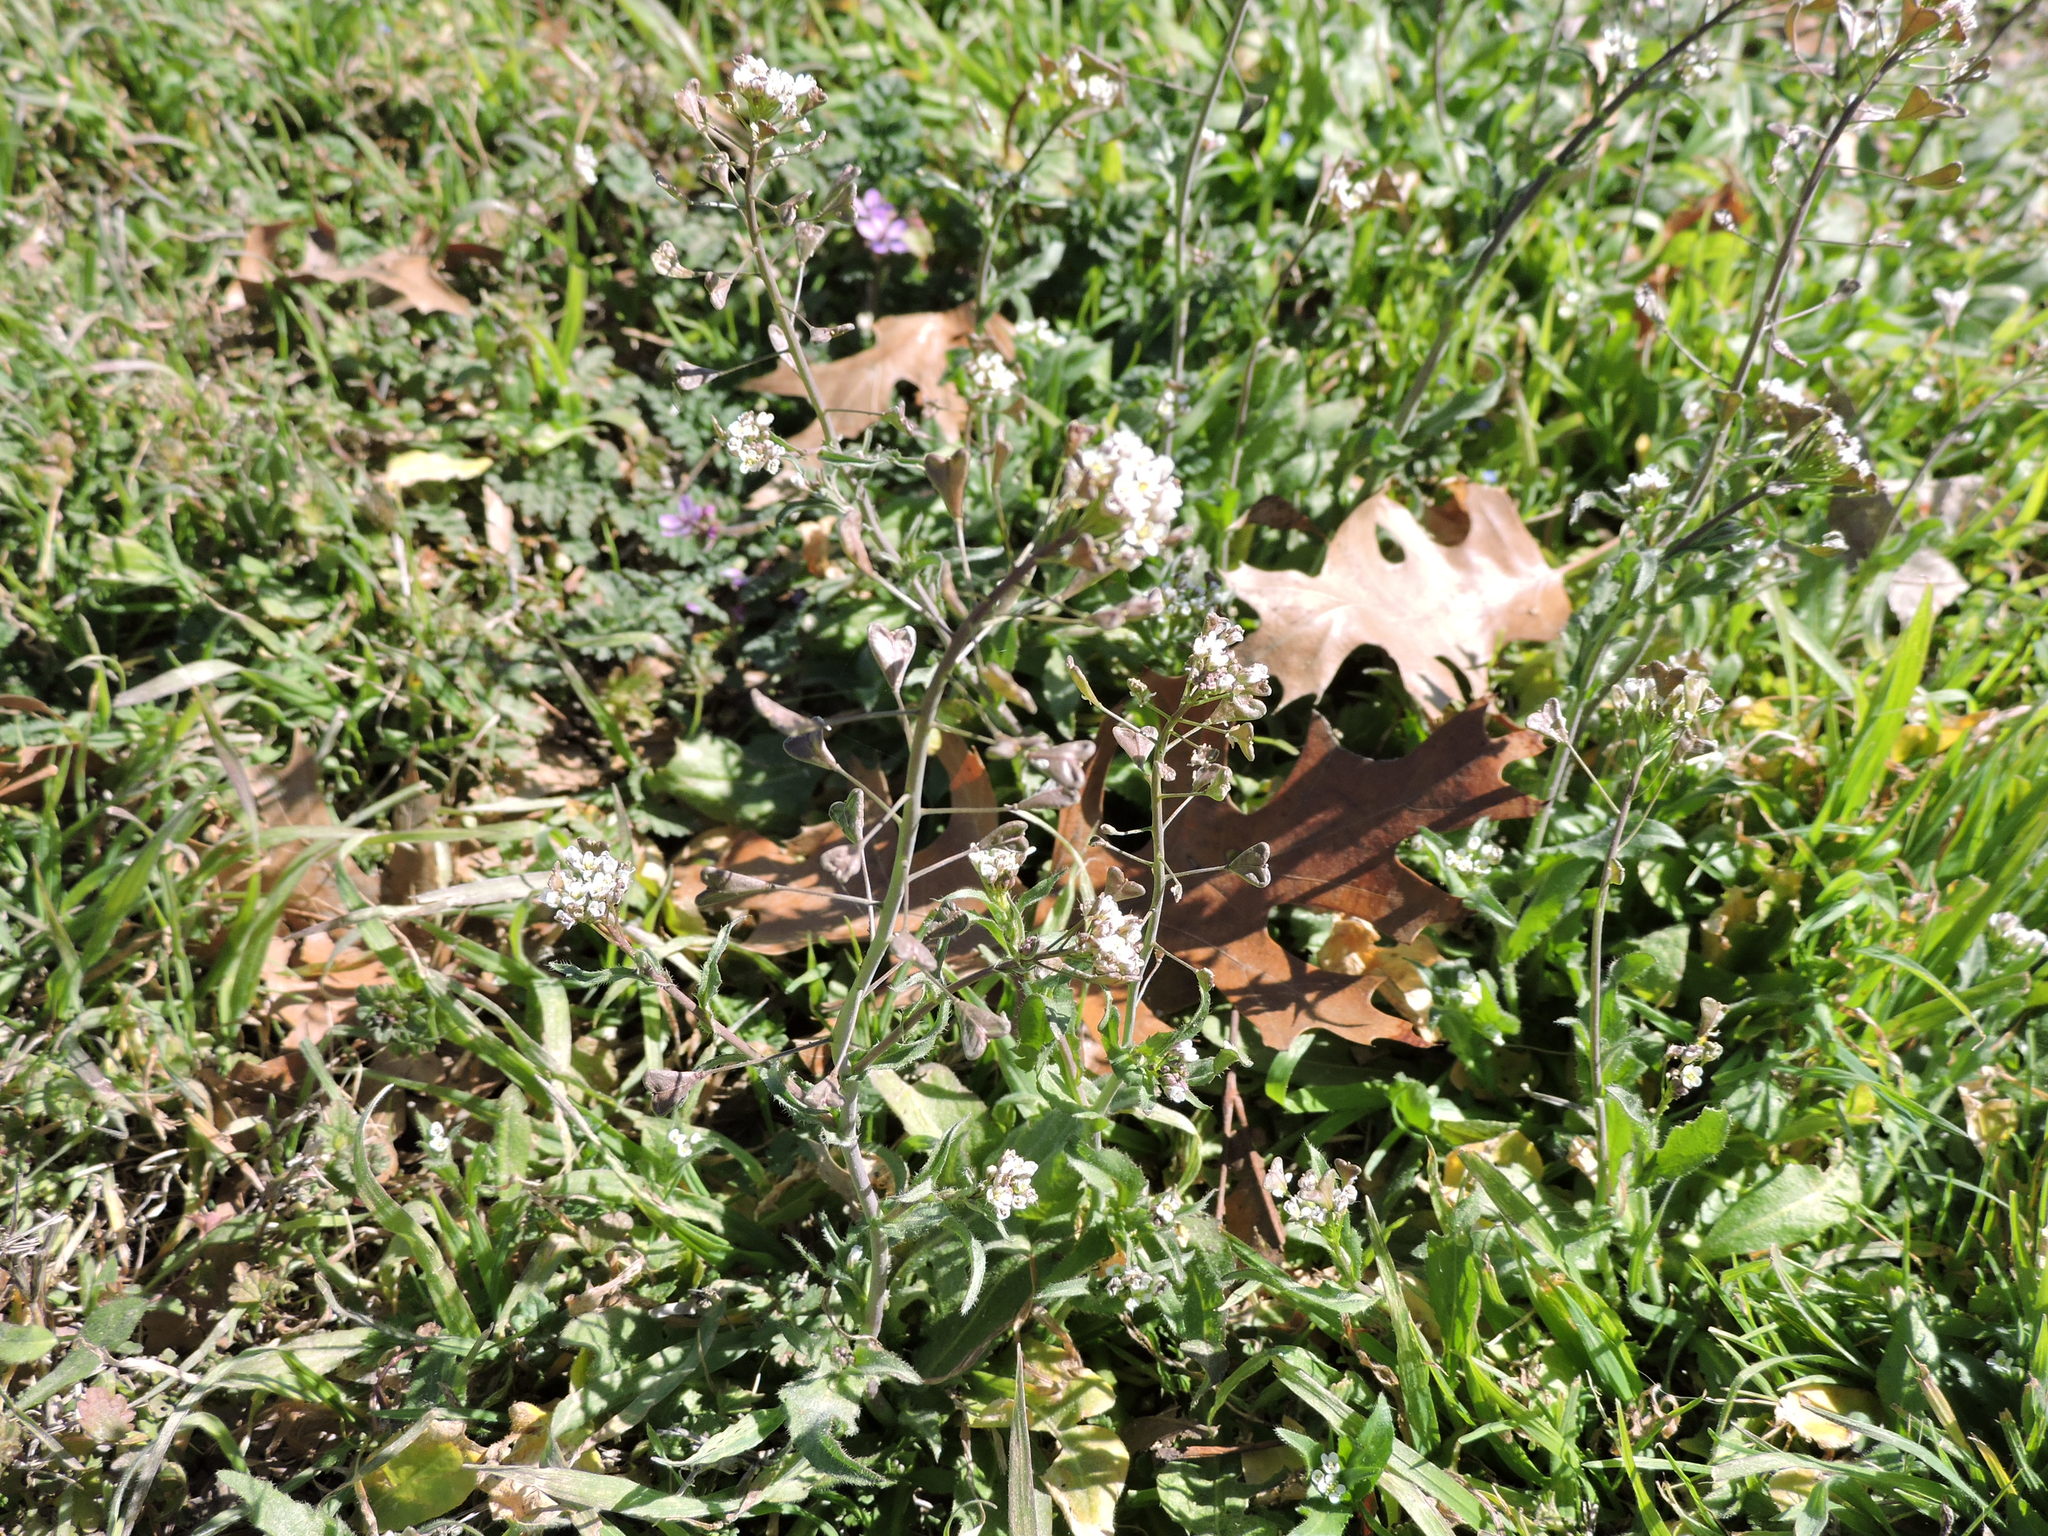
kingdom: Plantae
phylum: Tracheophyta
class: Magnoliopsida
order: Brassicales
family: Brassicaceae
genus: Capsella
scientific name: Capsella bursa-pastoris
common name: Shepherd's purse
